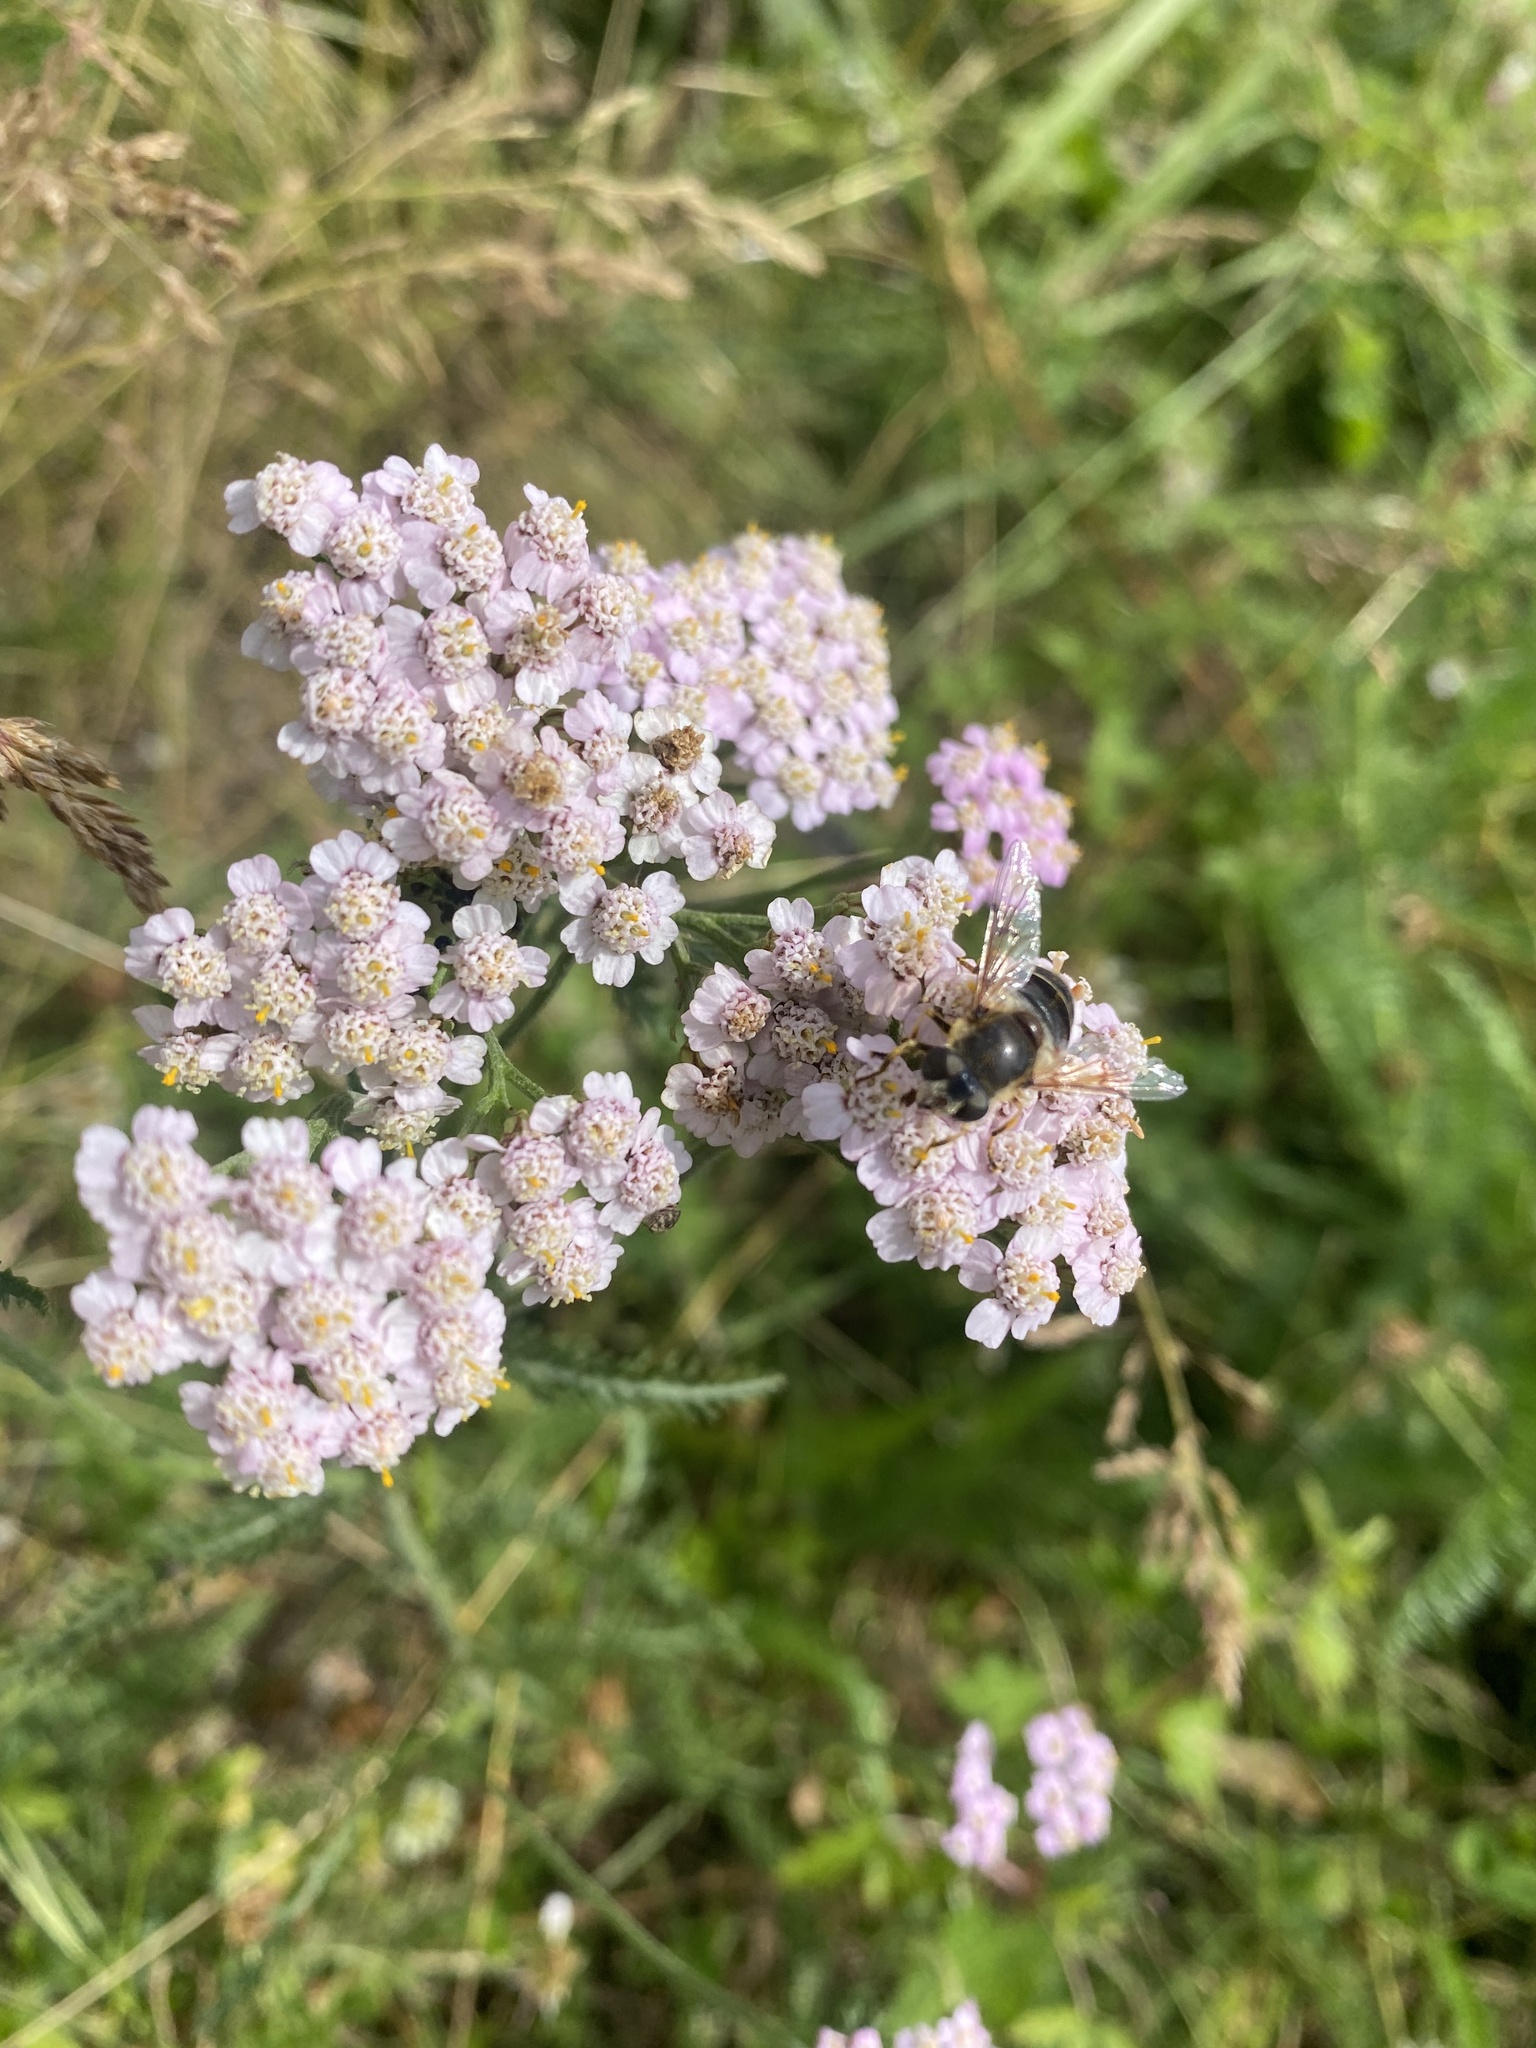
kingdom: Plantae
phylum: Tracheophyta
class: Magnoliopsida
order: Asterales
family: Asteraceae
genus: Achillea
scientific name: Achillea asiatica
